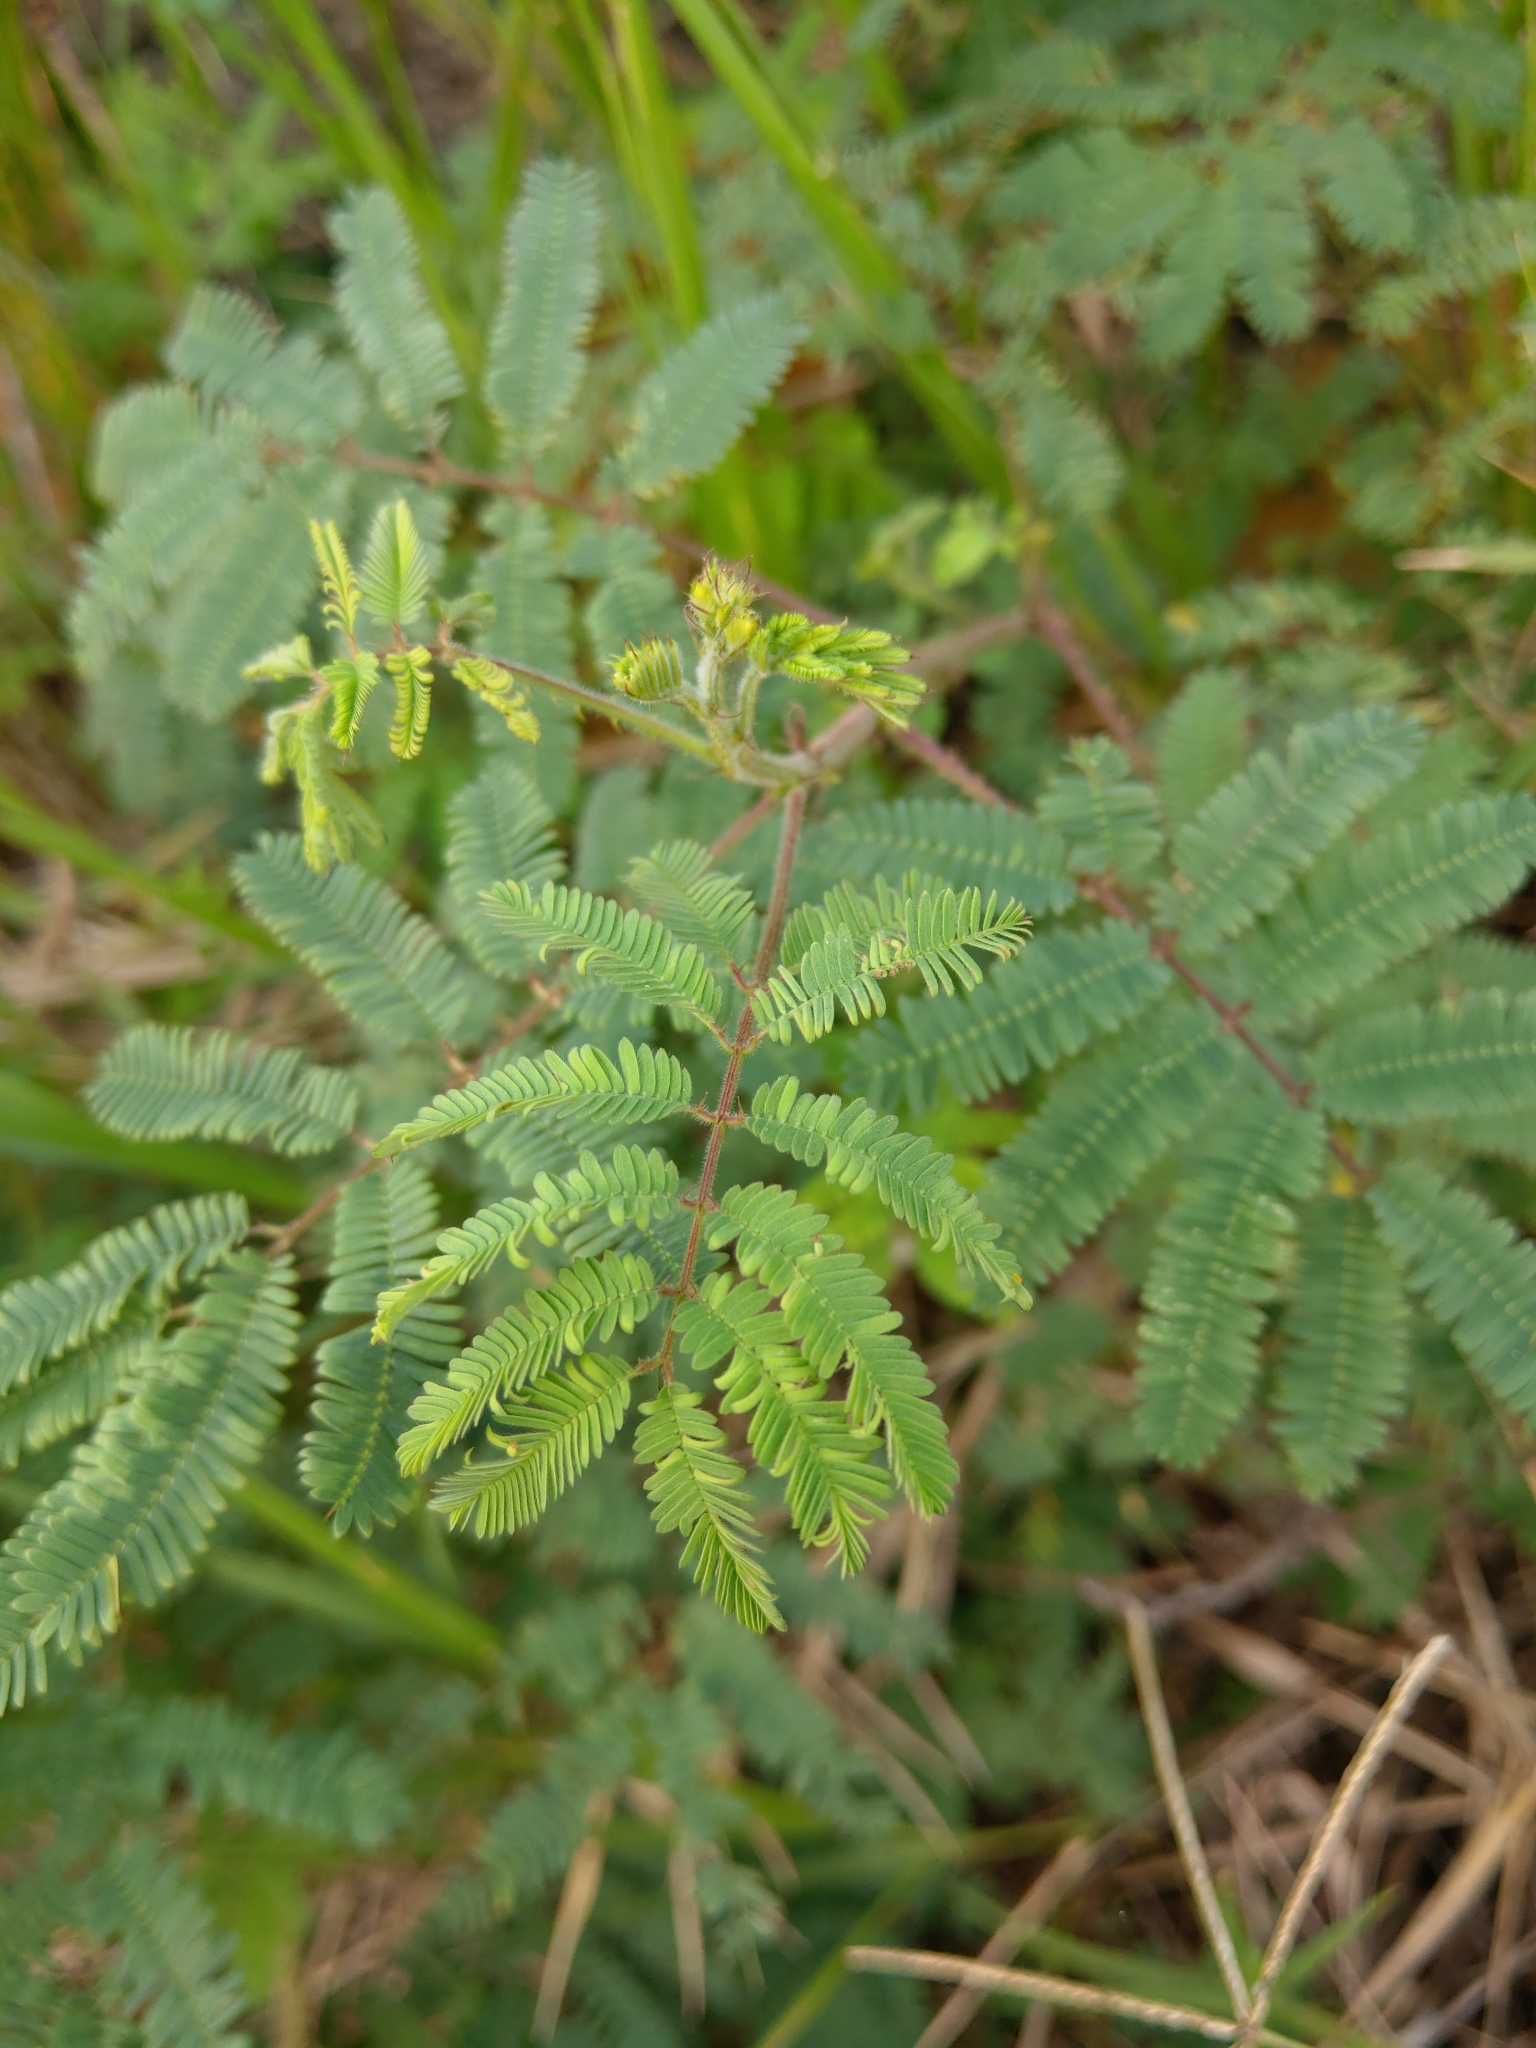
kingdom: Plantae
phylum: Tracheophyta
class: Magnoliopsida
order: Fabales
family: Fabaceae
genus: Mimosa
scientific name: Mimosa diplotricha
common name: Giant sensitive-plant
